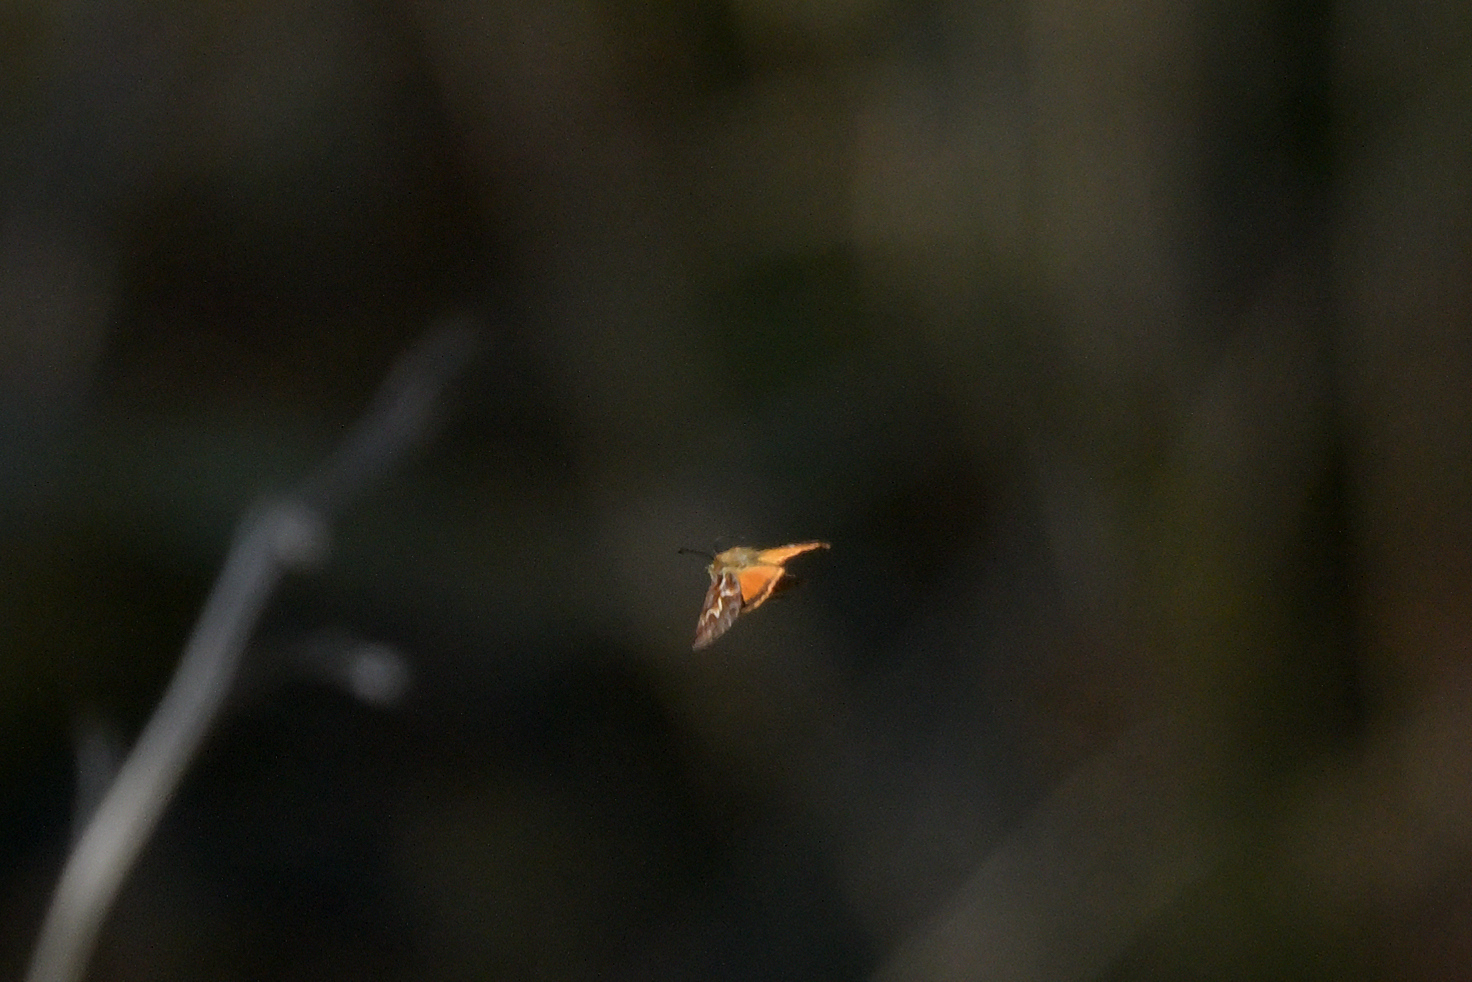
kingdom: Animalia
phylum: Arthropoda
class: Insecta
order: Lepidoptera
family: Geometridae
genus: Declana
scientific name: Declana
